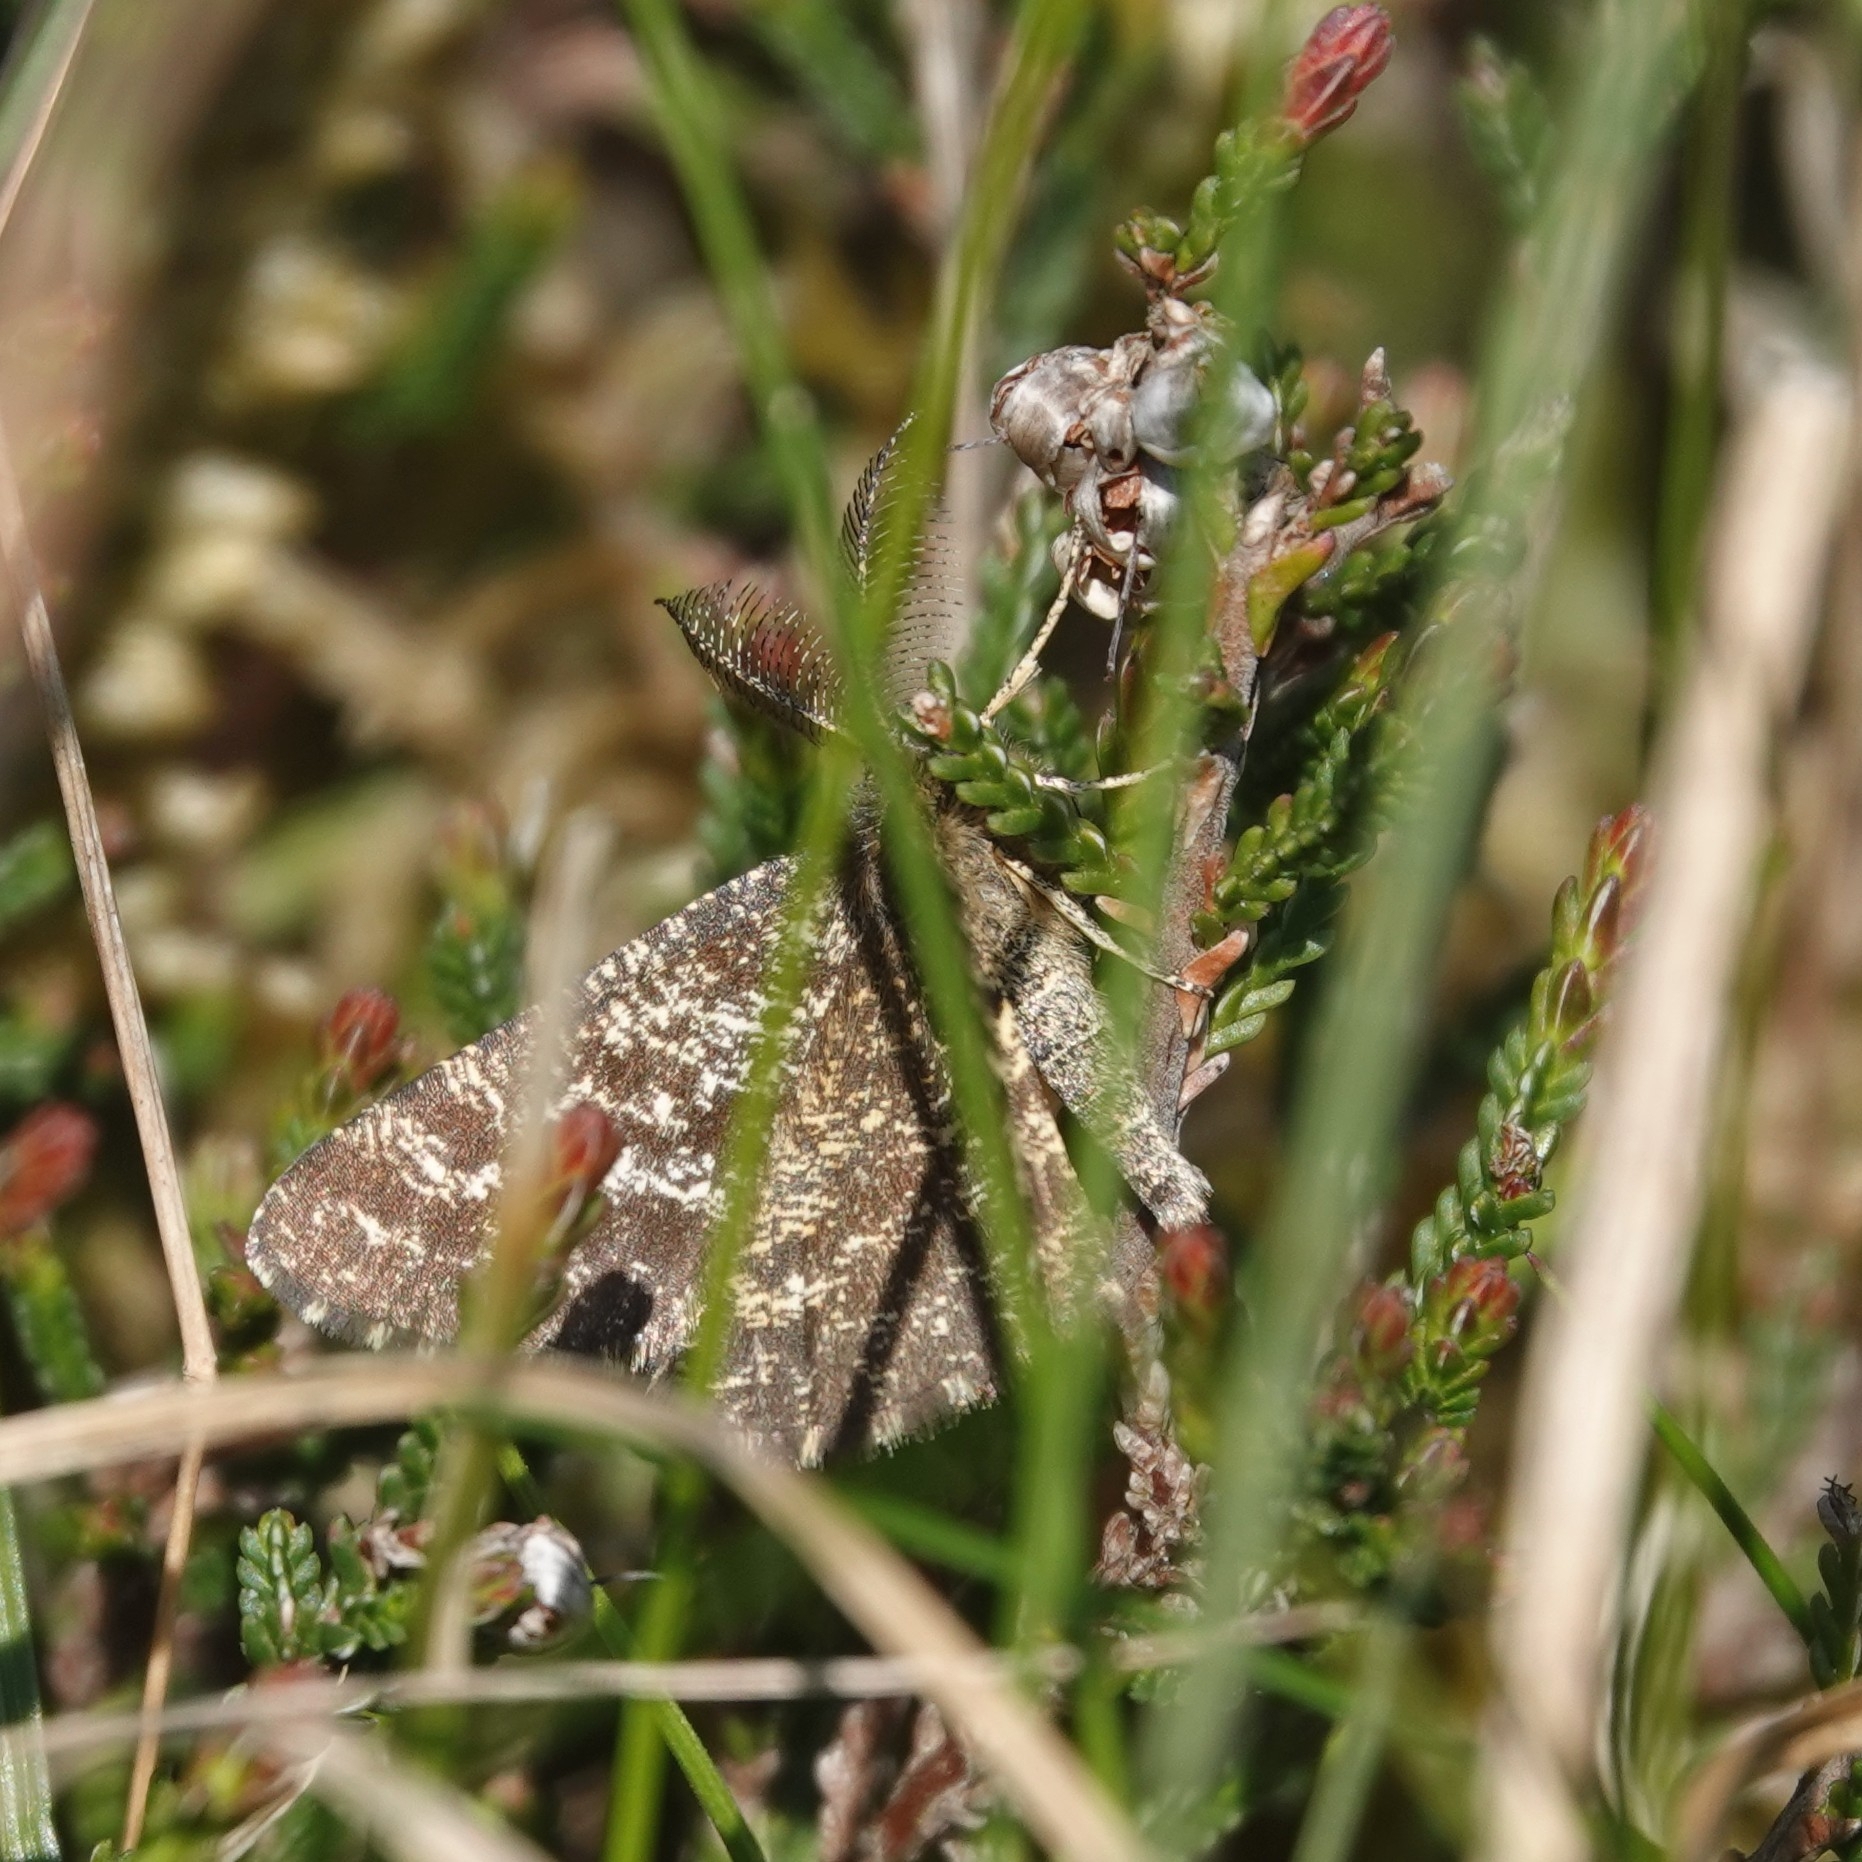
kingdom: Animalia
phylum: Arthropoda
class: Insecta
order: Lepidoptera
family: Geometridae
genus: Ematurga
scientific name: Ematurga atomaria
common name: Common heath
